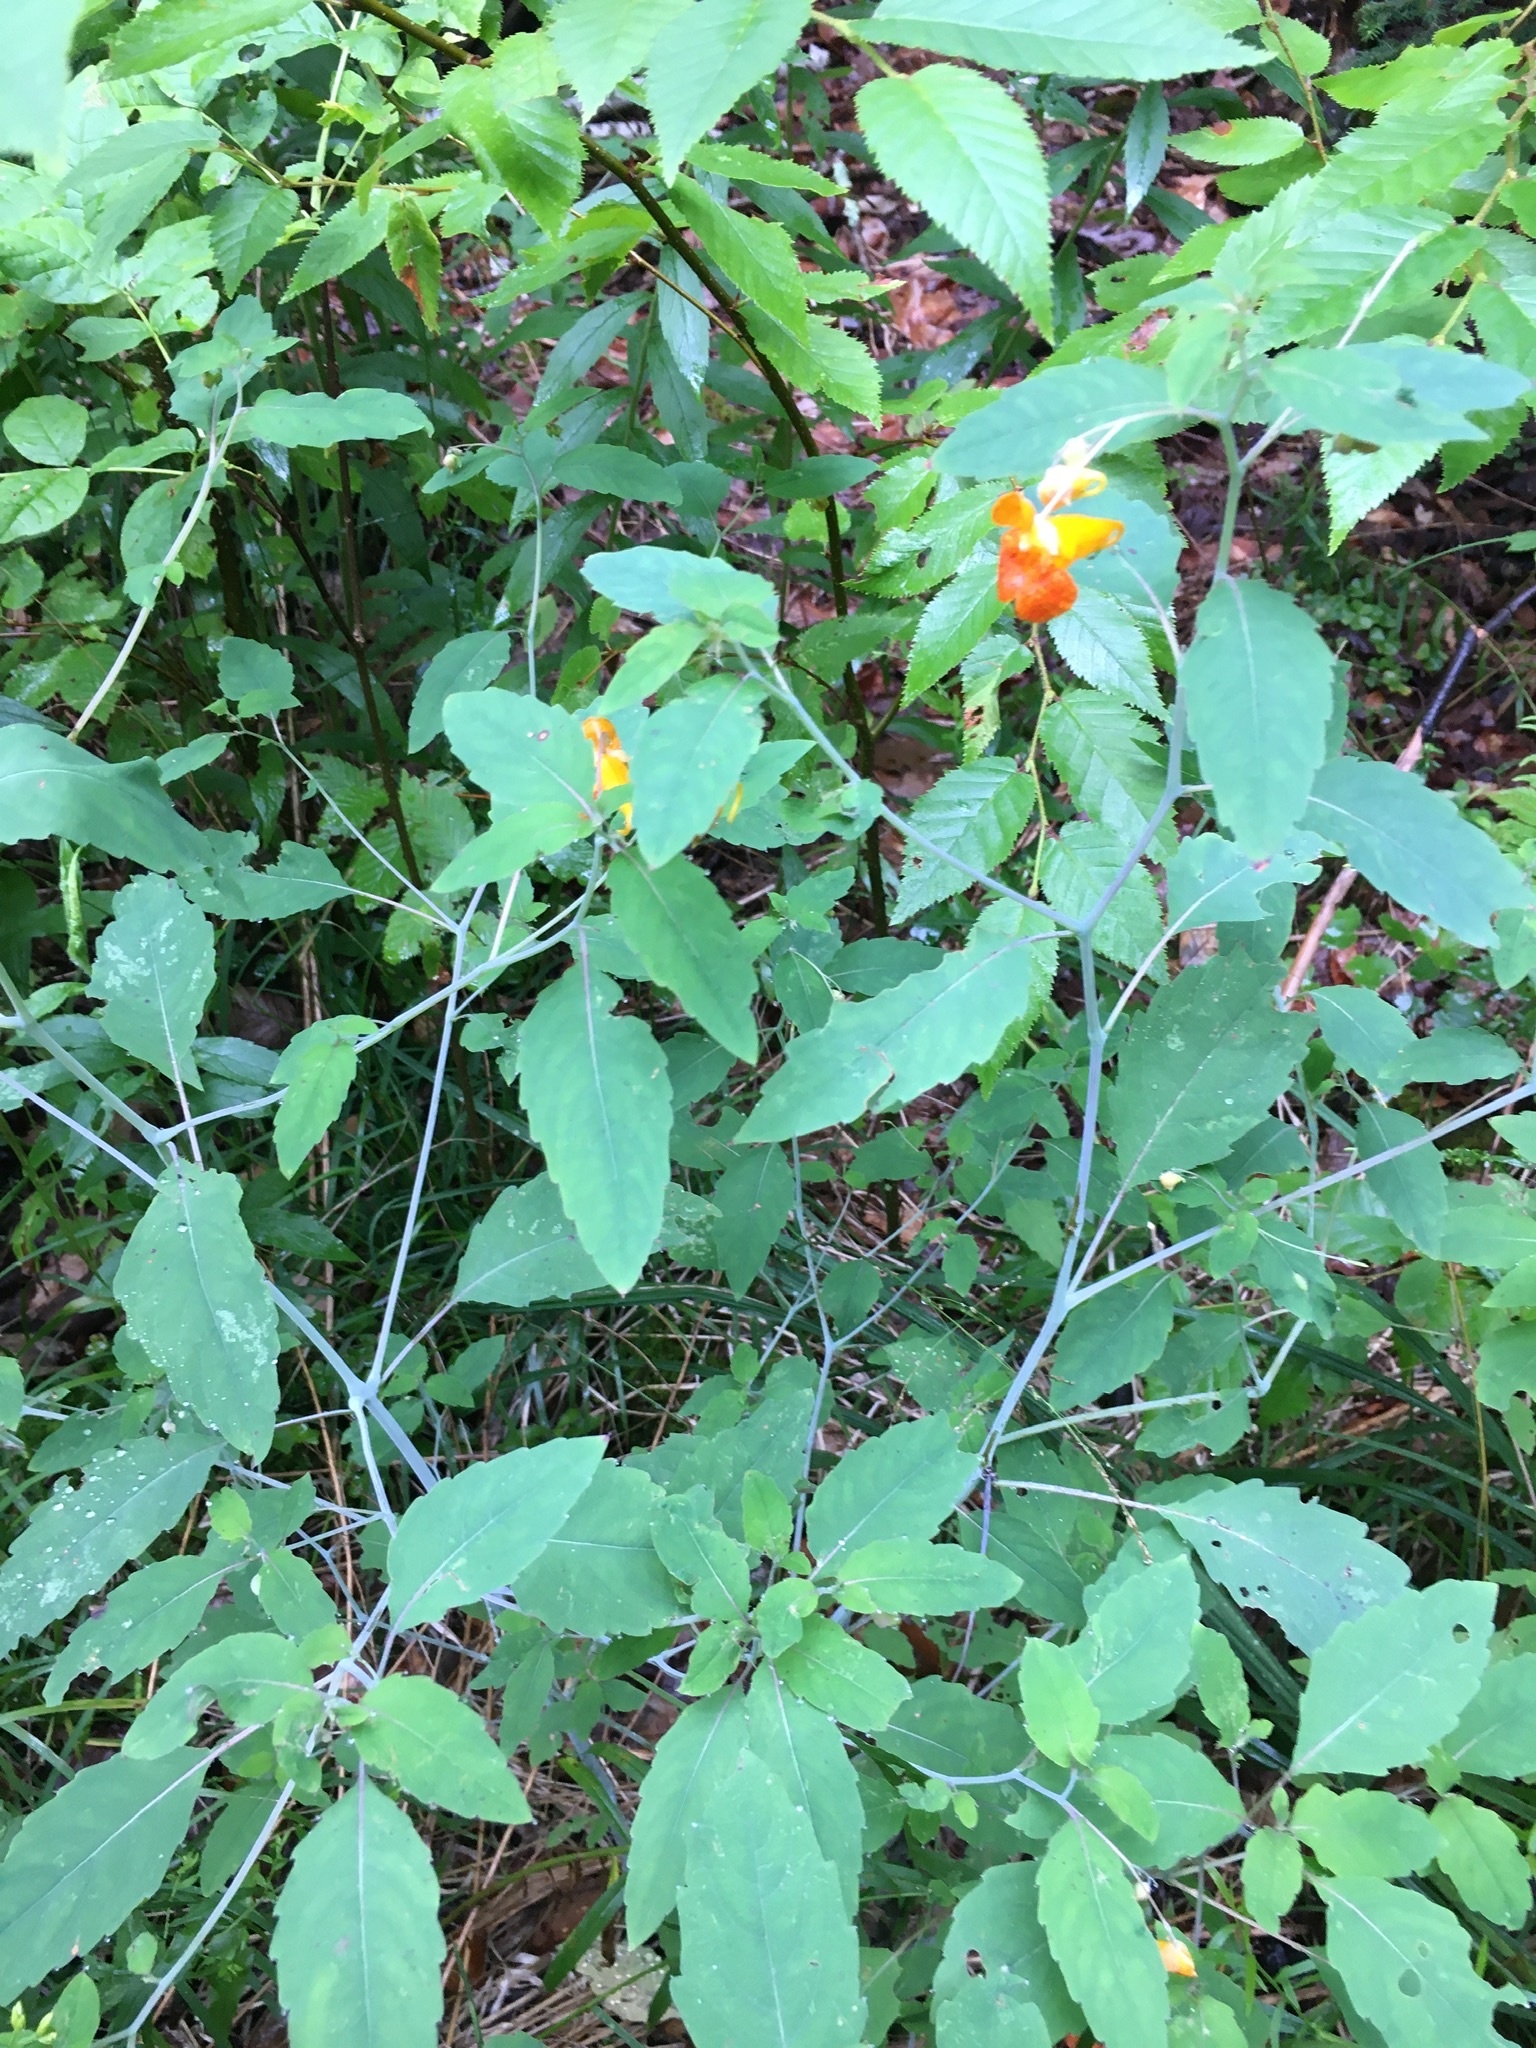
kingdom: Plantae
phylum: Tracheophyta
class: Magnoliopsida
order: Ericales
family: Balsaminaceae
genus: Impatiens
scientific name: Impatiens capensis
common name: Orange balsam
